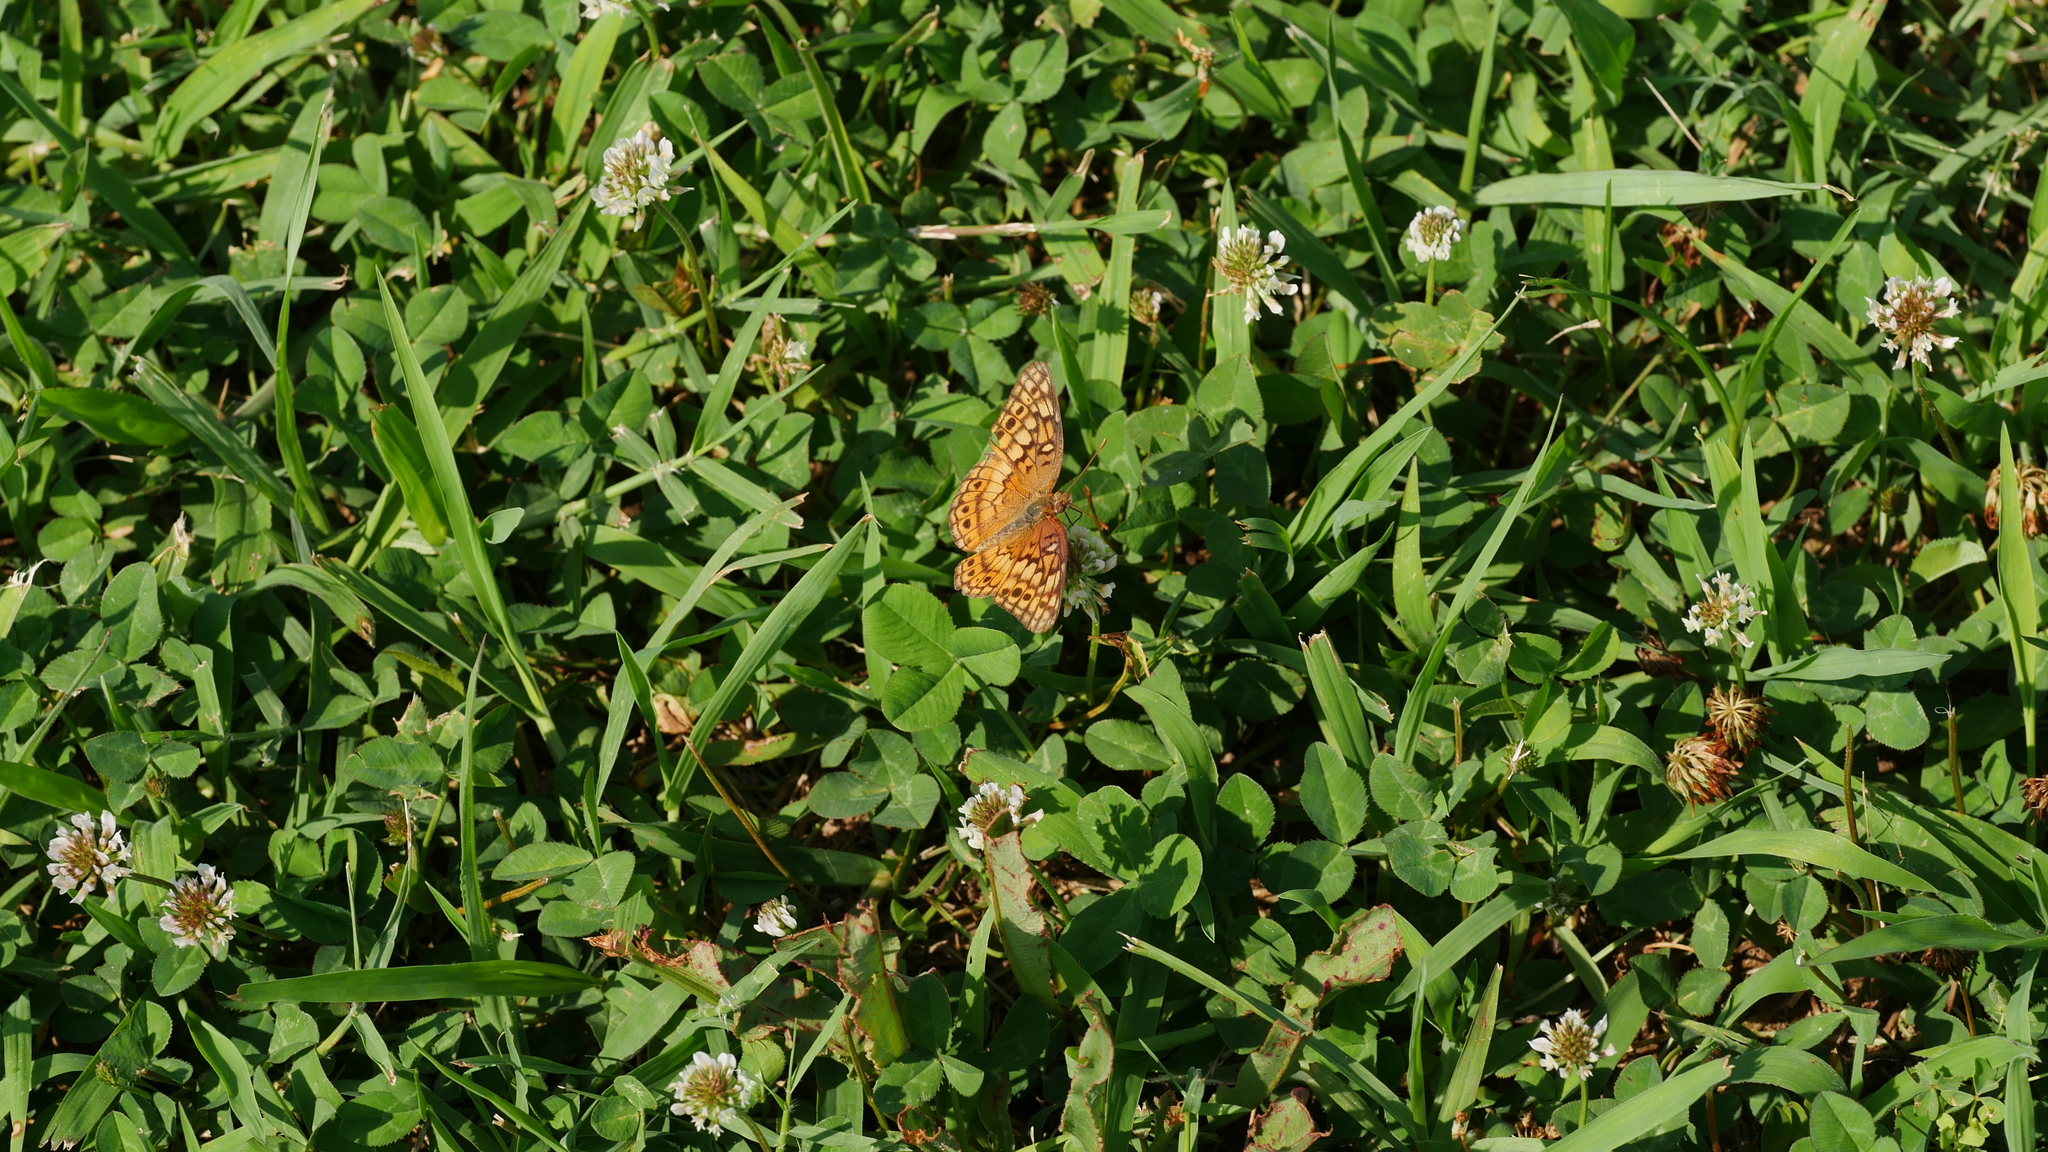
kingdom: Animalia
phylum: Arthropoda
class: Insecta
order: Lepidoptera
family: Nymphalidae
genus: Euptoieta
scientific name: Euptoieta claudia
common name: Variegated fritillary
